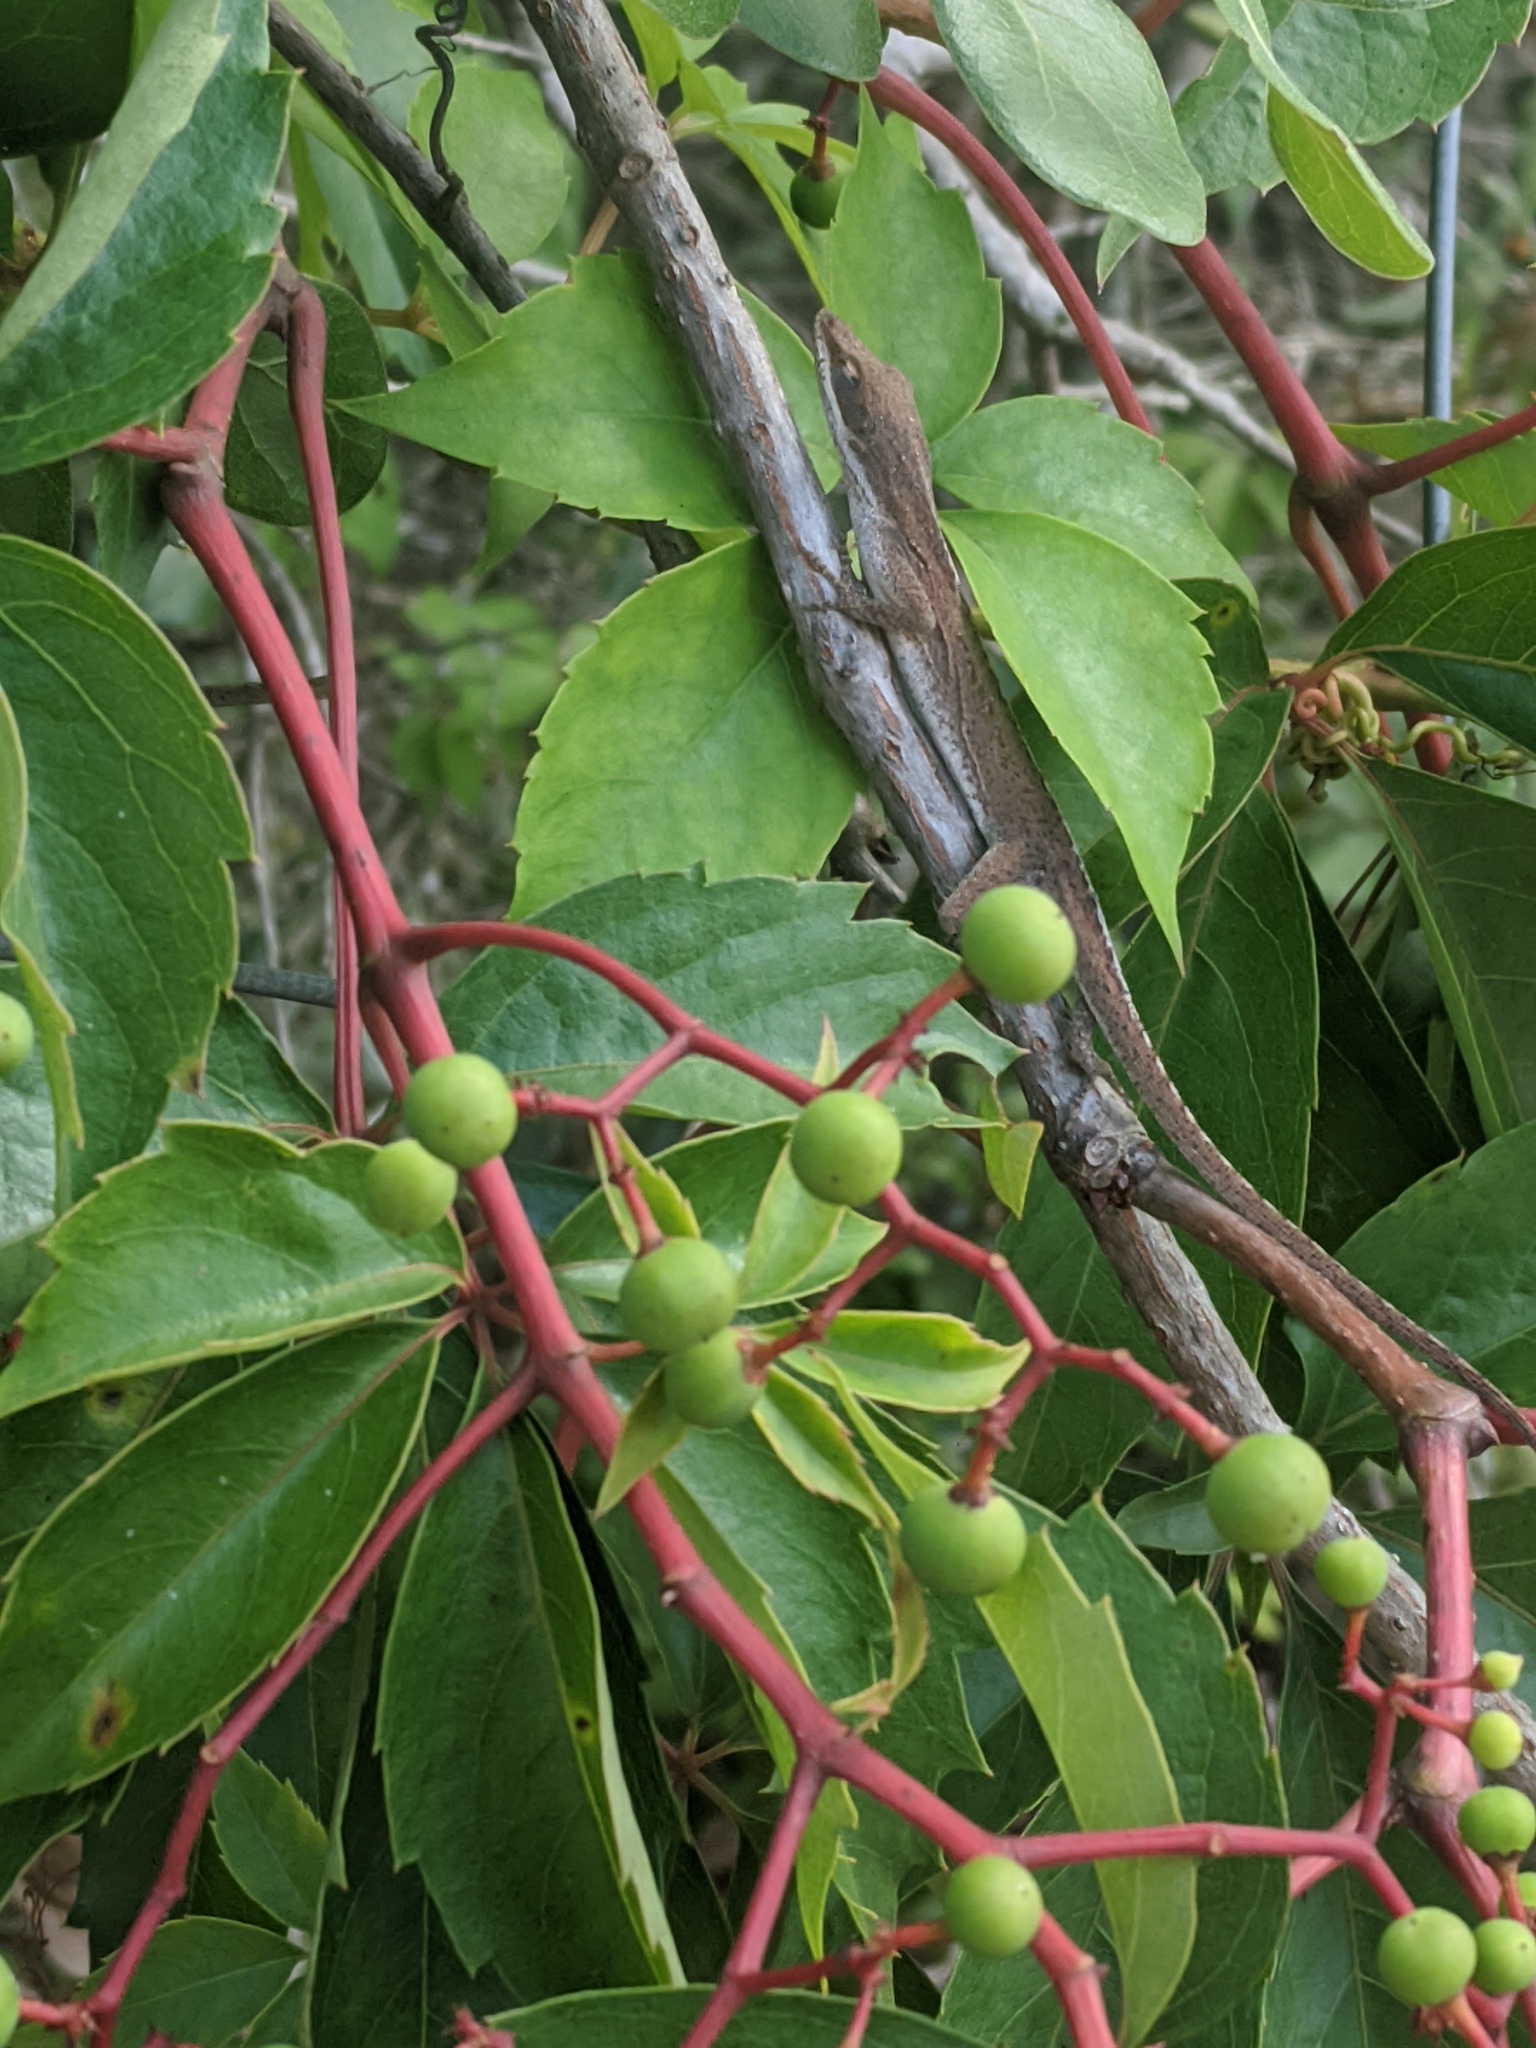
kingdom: Animalia
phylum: Chordata
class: Squamata
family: Dactyloidae
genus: Anolis
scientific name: Anolis carolinensis
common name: Green anole
